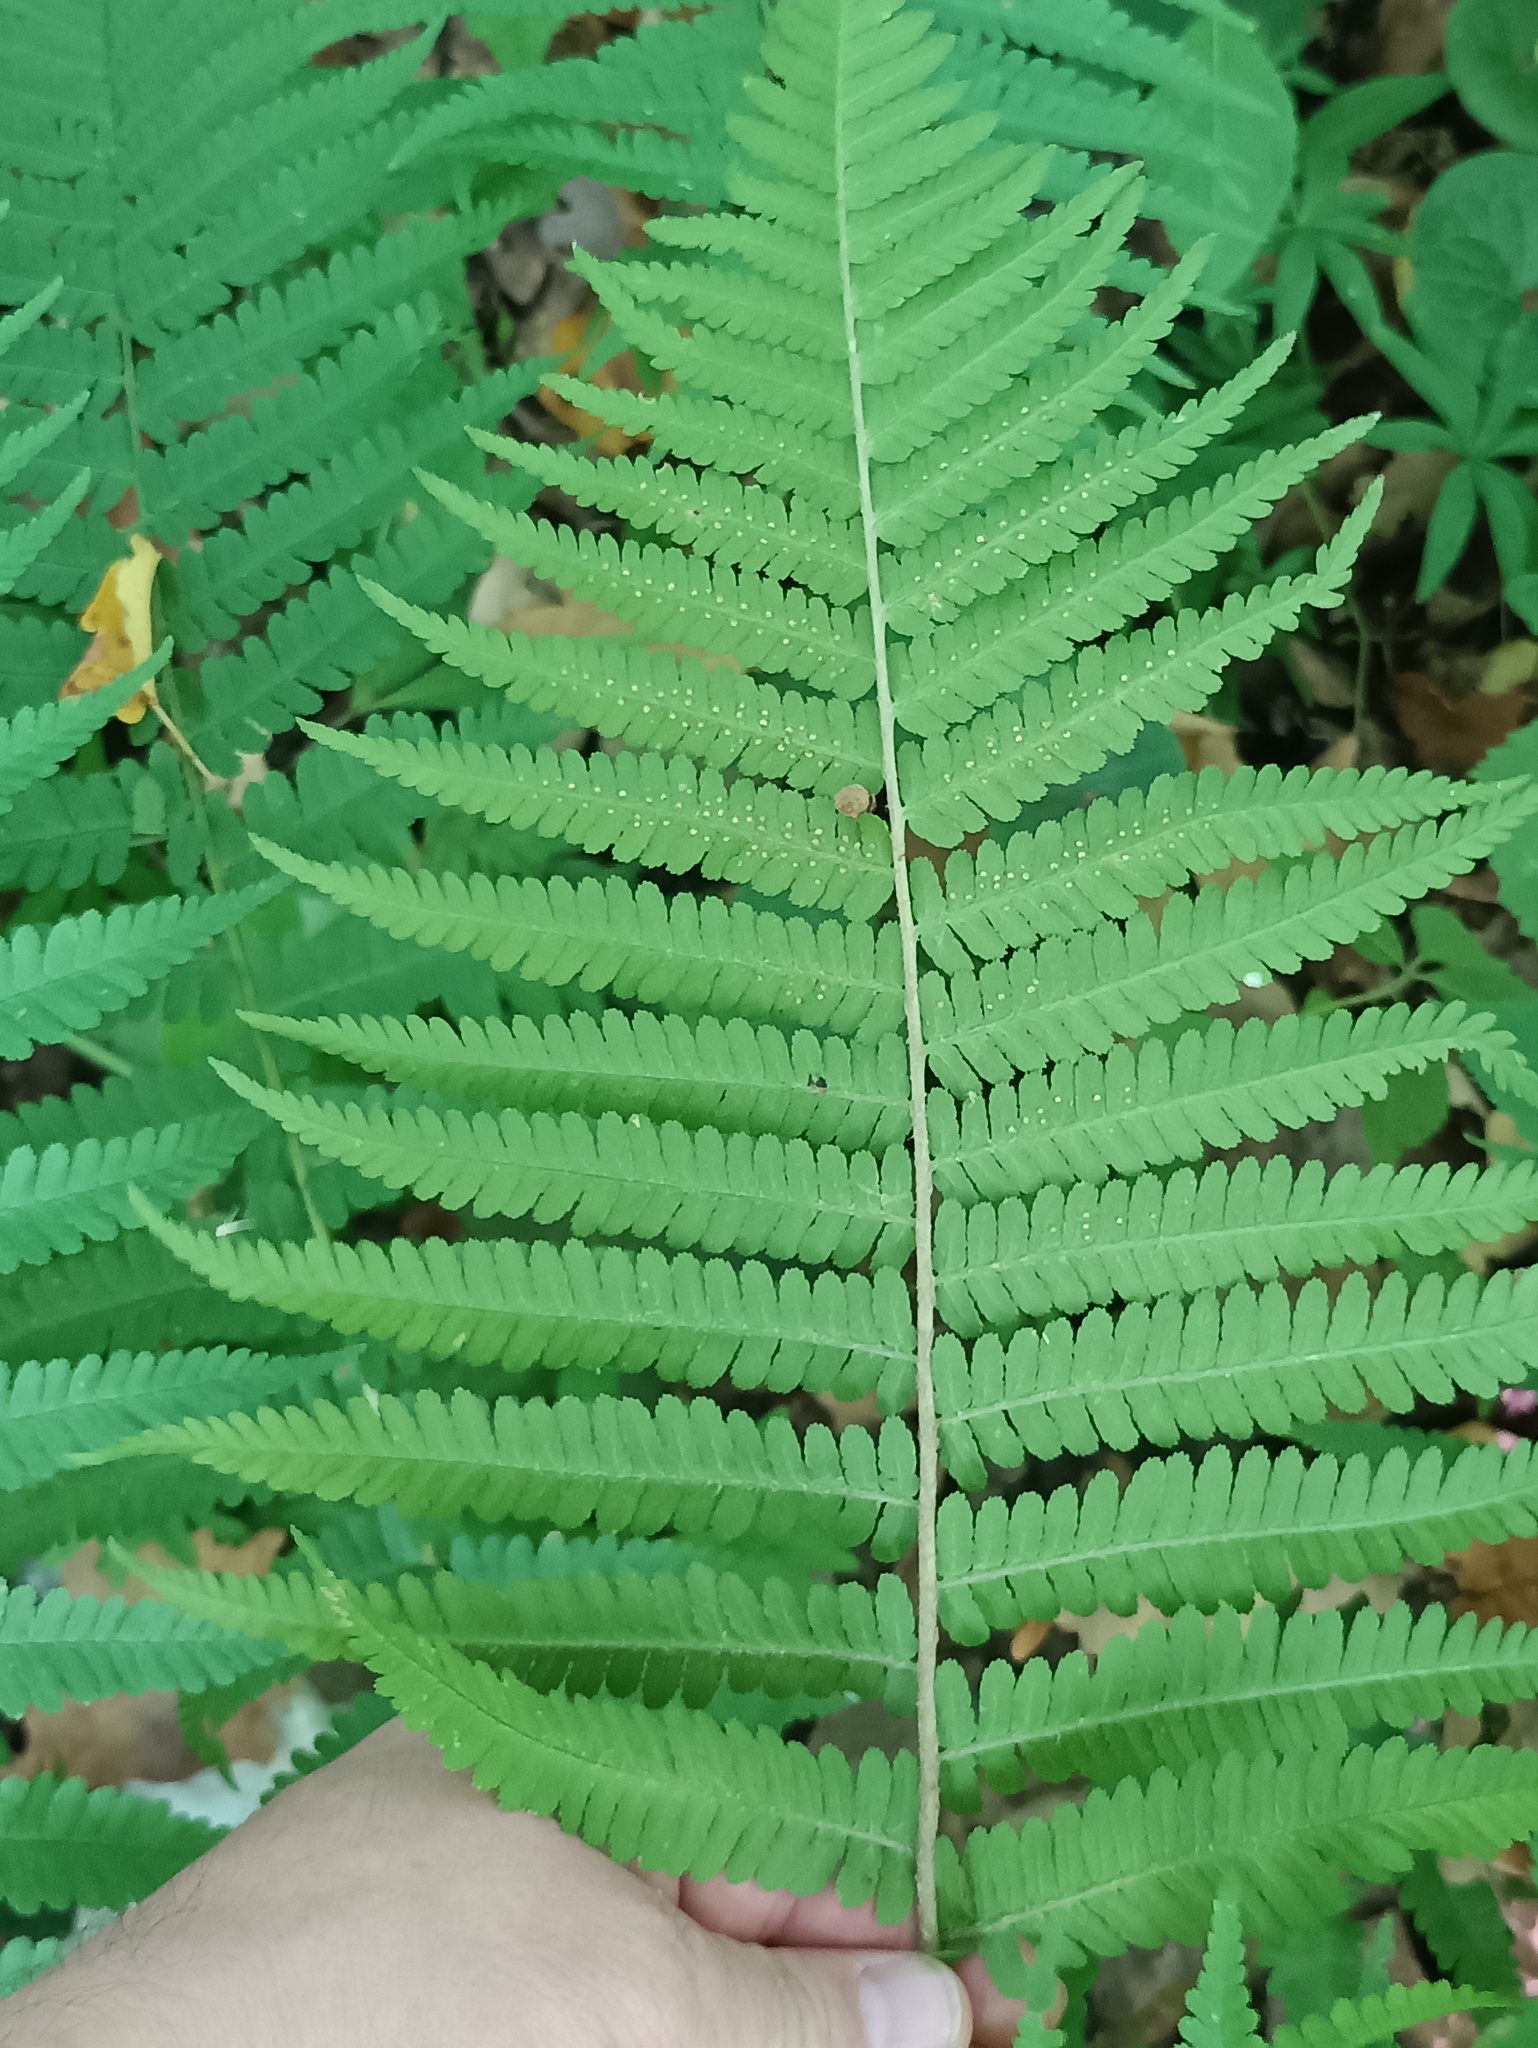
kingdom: Plantae
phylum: Tracheophyta
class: Polypodiopsida
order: Polypodiales
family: Dryopteridaceae
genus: Dryopteris
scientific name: Dryopteris filix-mas
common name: Male fern
